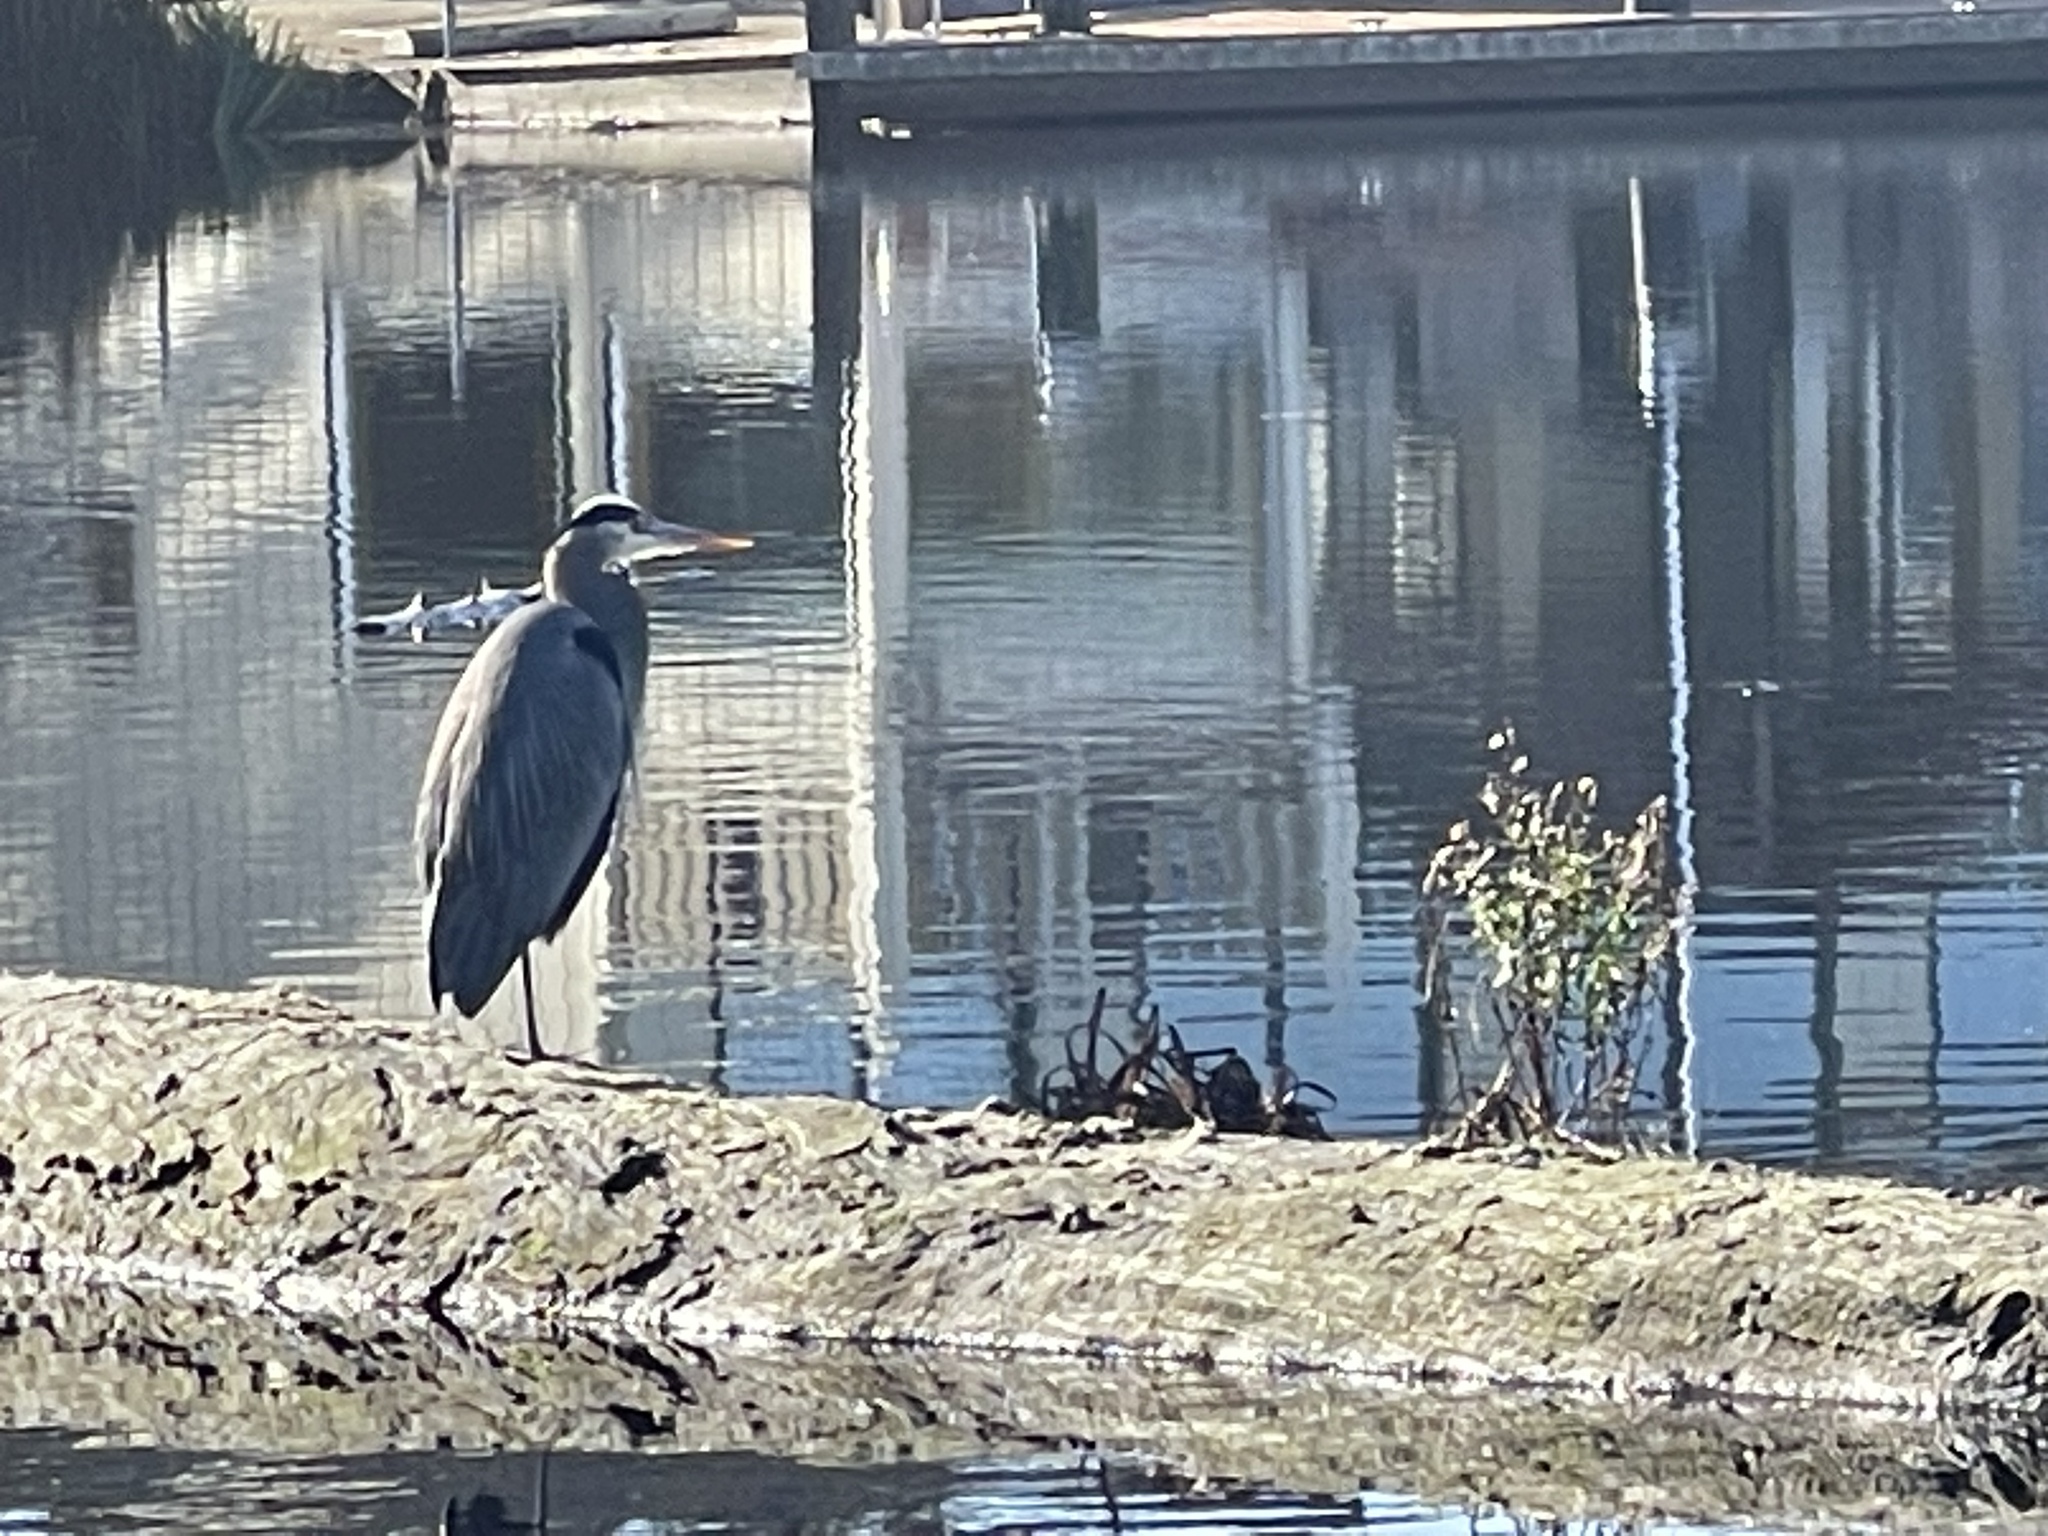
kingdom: Animalia
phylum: Chordata
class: Aves
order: Pelecaniformes
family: Ardeidae
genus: Ardea
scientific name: Ardea herodias
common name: Great blue heron
